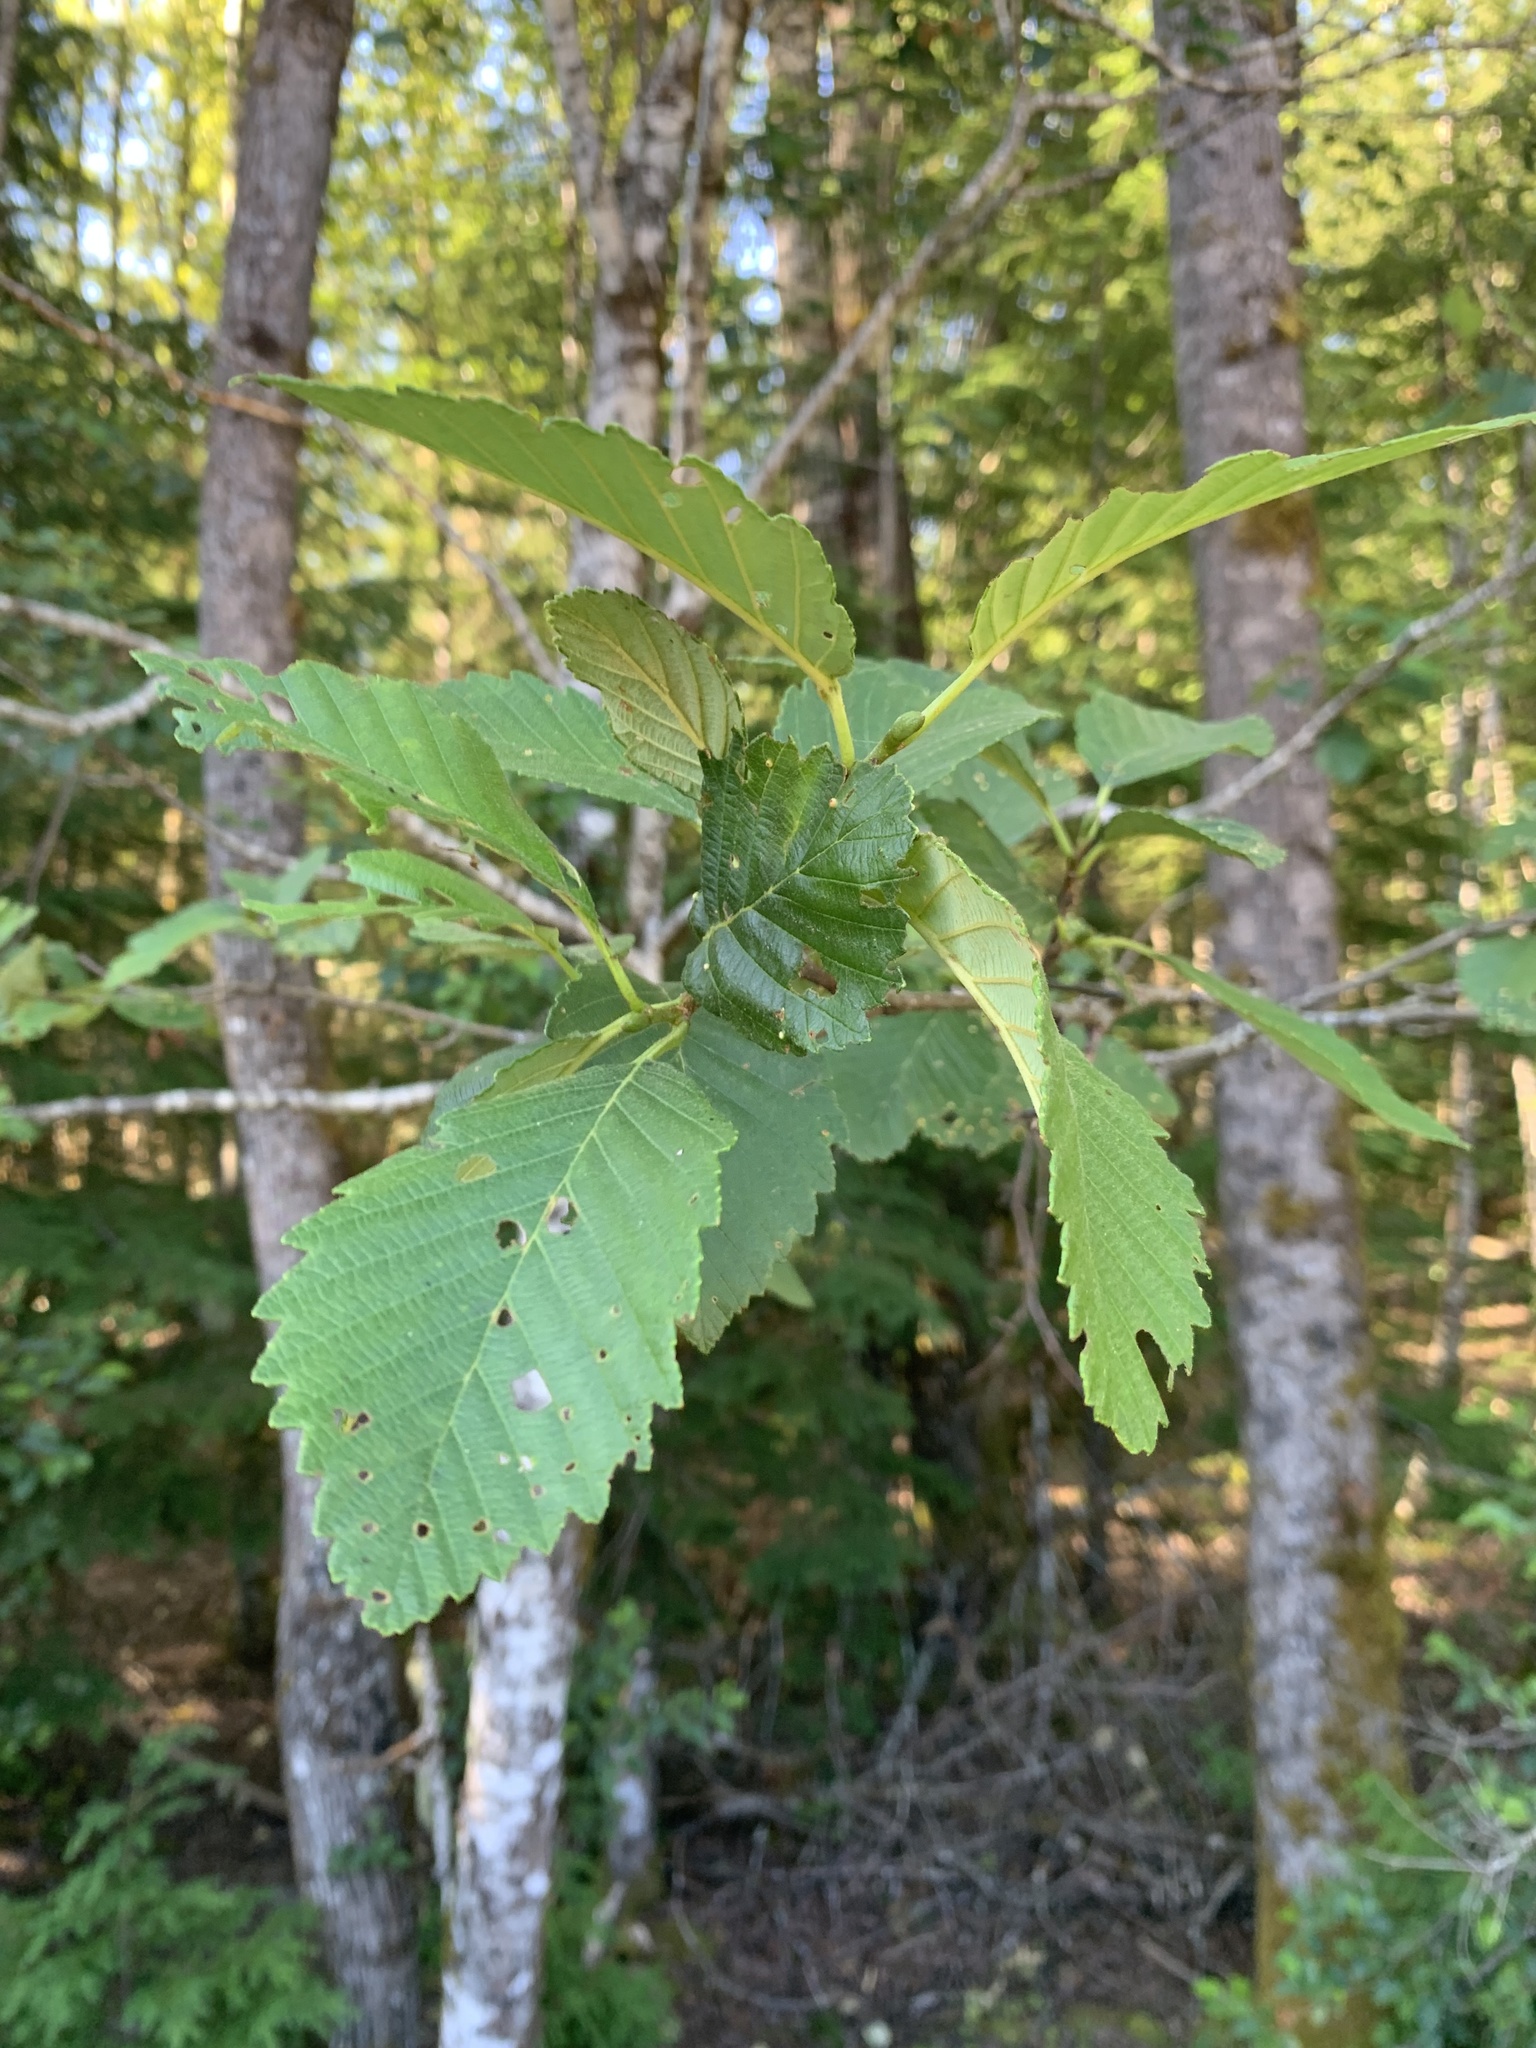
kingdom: Plantae
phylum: Tracheophyta
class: Magnoliopsida
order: Fagales
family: Betulaceae
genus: Alnus
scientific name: Alnus rubra
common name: Red alder
